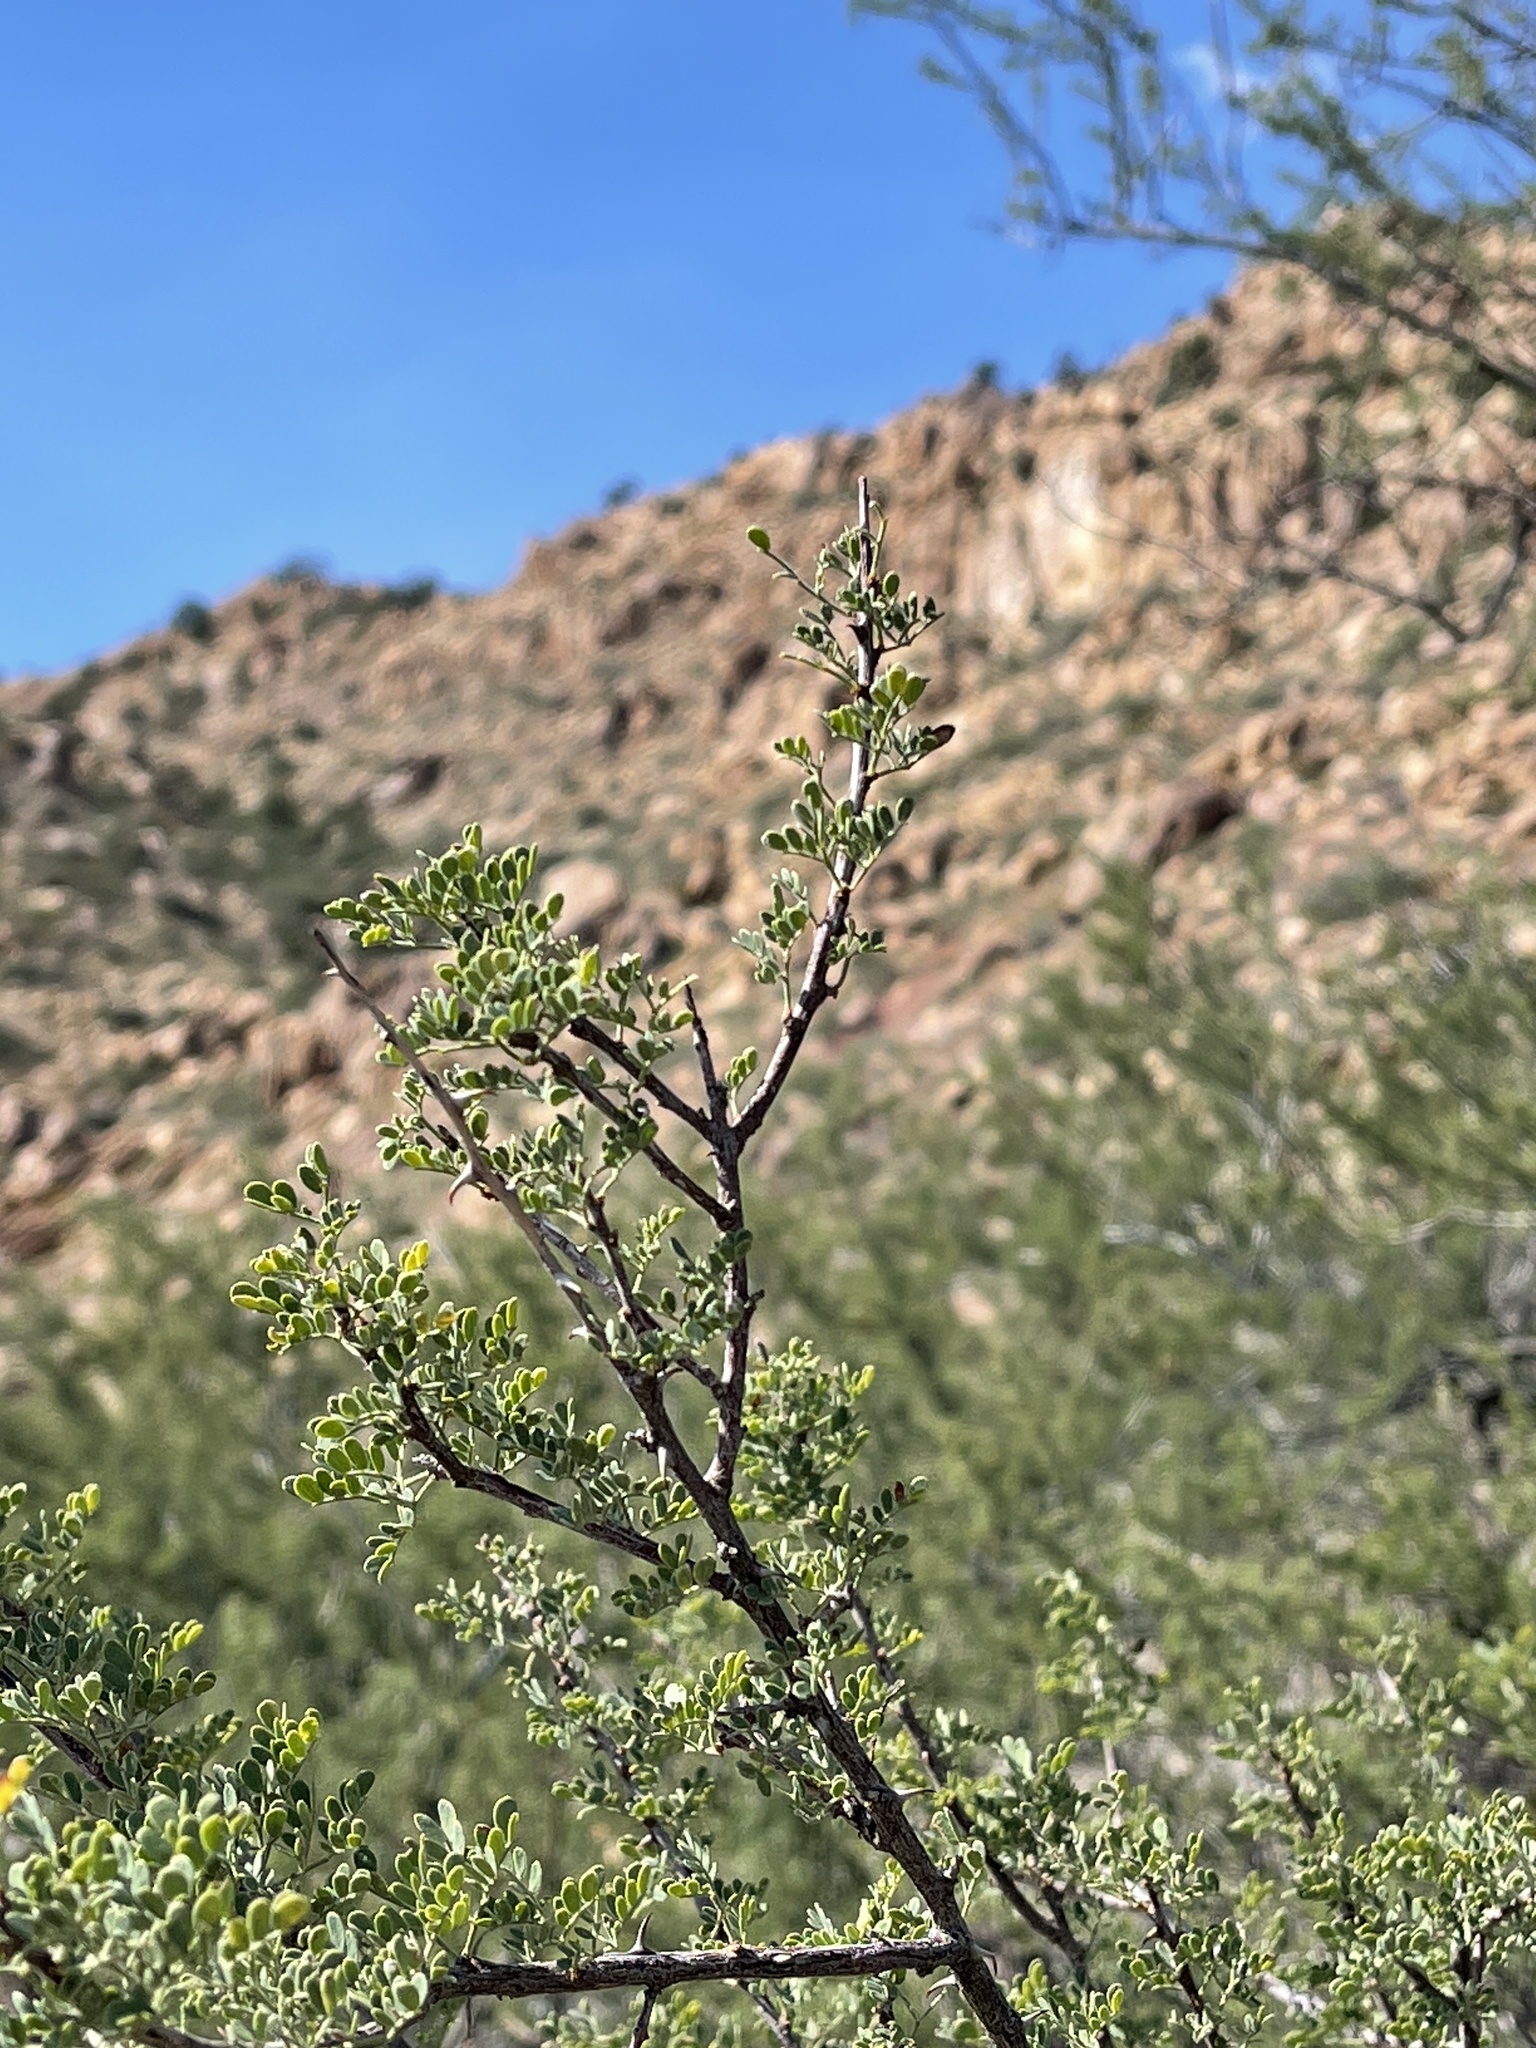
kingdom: Plantae
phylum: Tracheophyta
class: Magnoliopsida
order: Fabales
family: Fabaceae
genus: Senegalia
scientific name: Senegalia greggii
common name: Texas-mimosa
